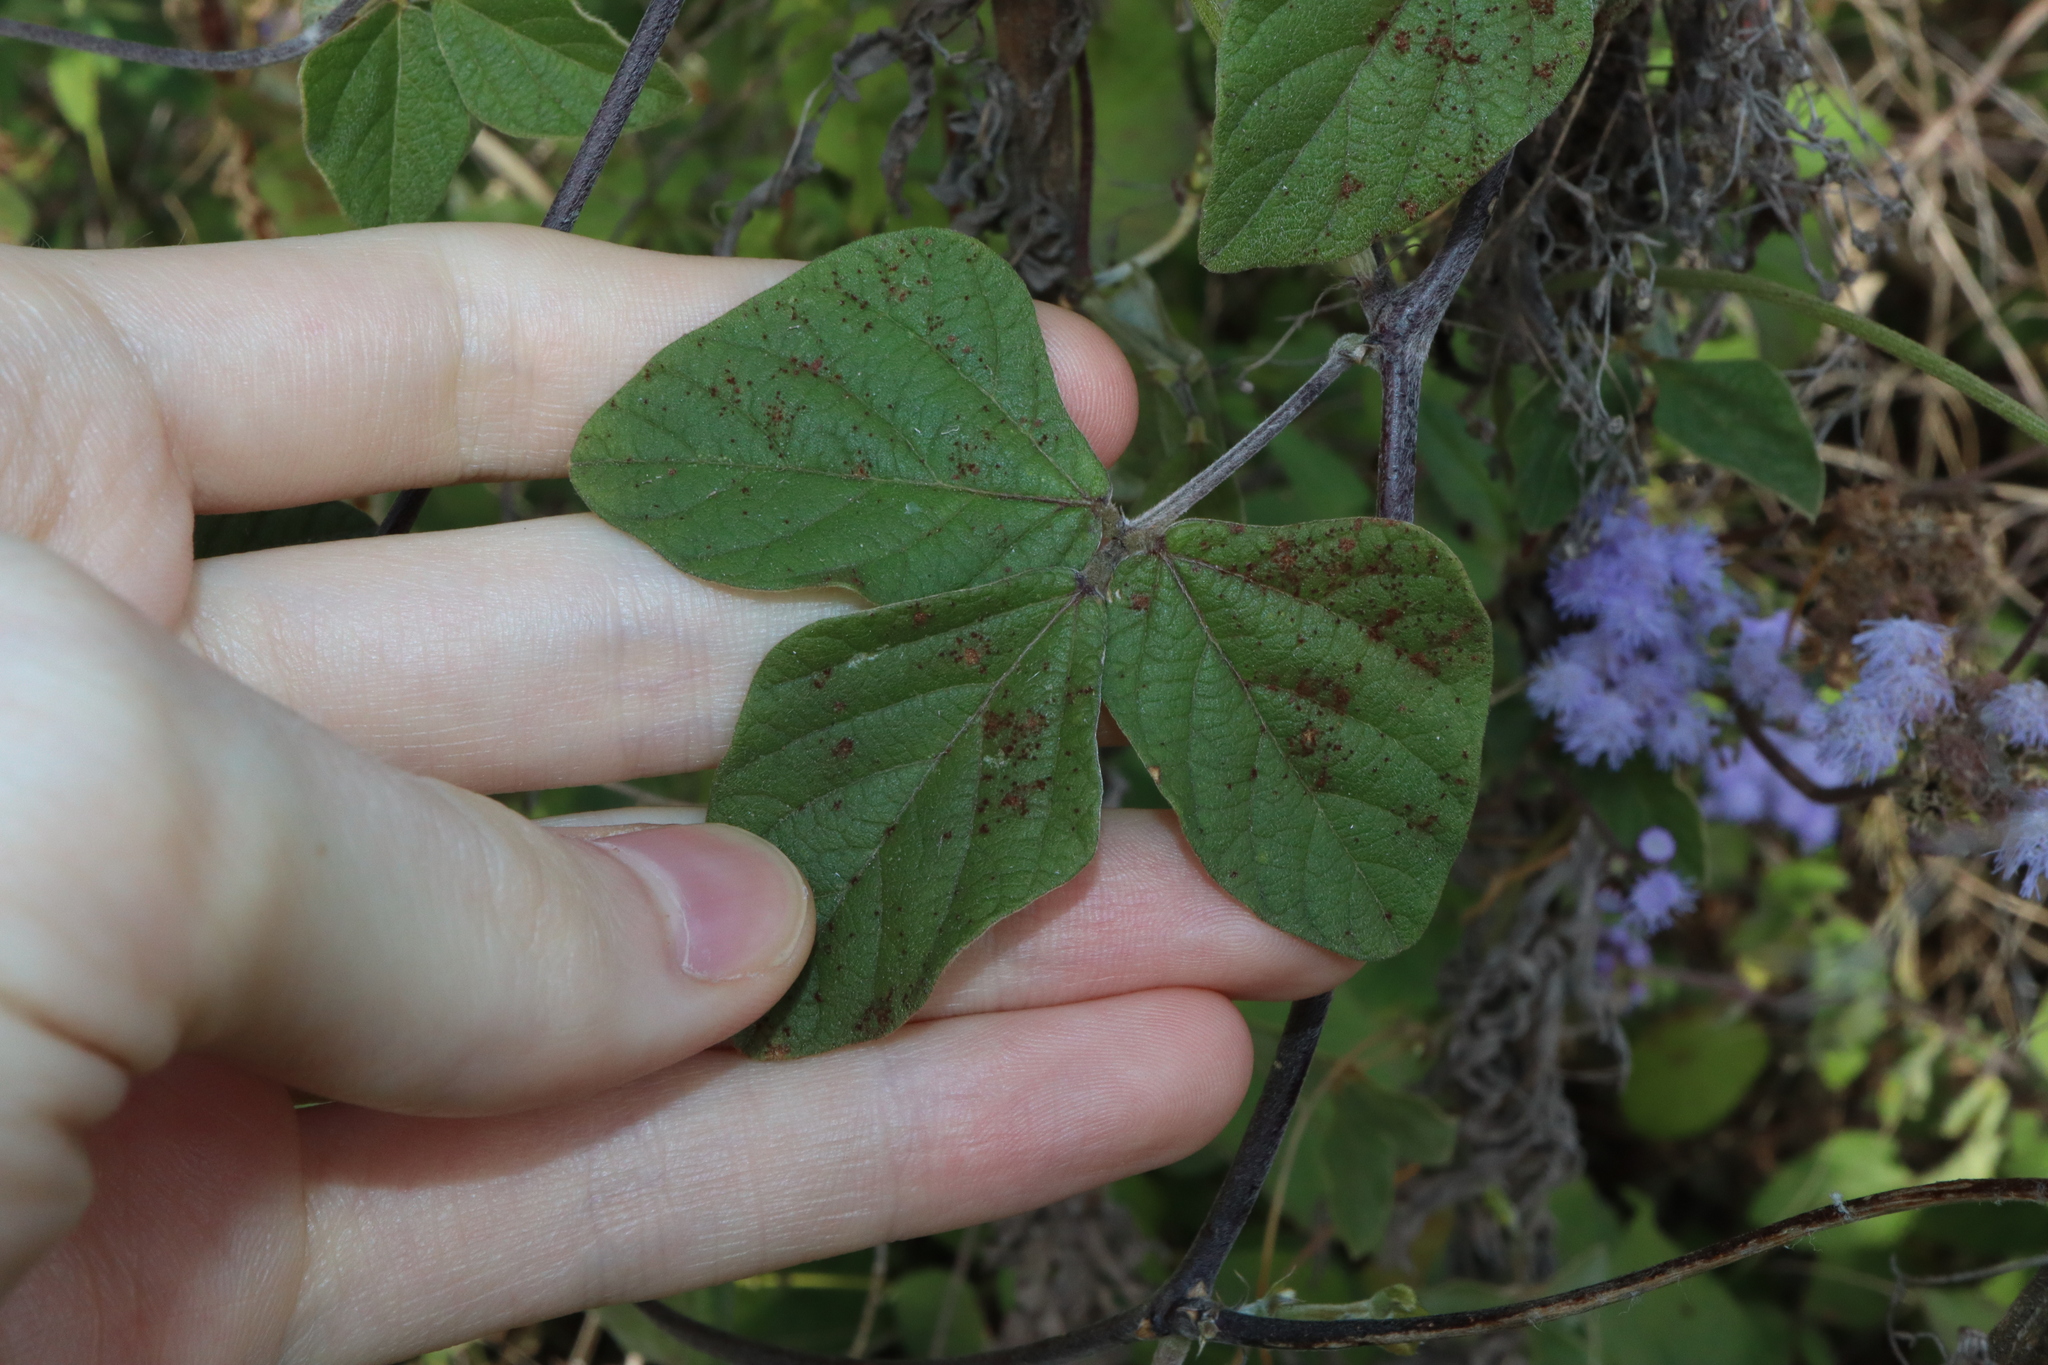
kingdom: Plantae
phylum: Tracheophyta
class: Magnoliopsida
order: Fabales
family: Fabaceae
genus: Macroptilium
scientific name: Macroptilium atropurpureum
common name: Purple bushbean
